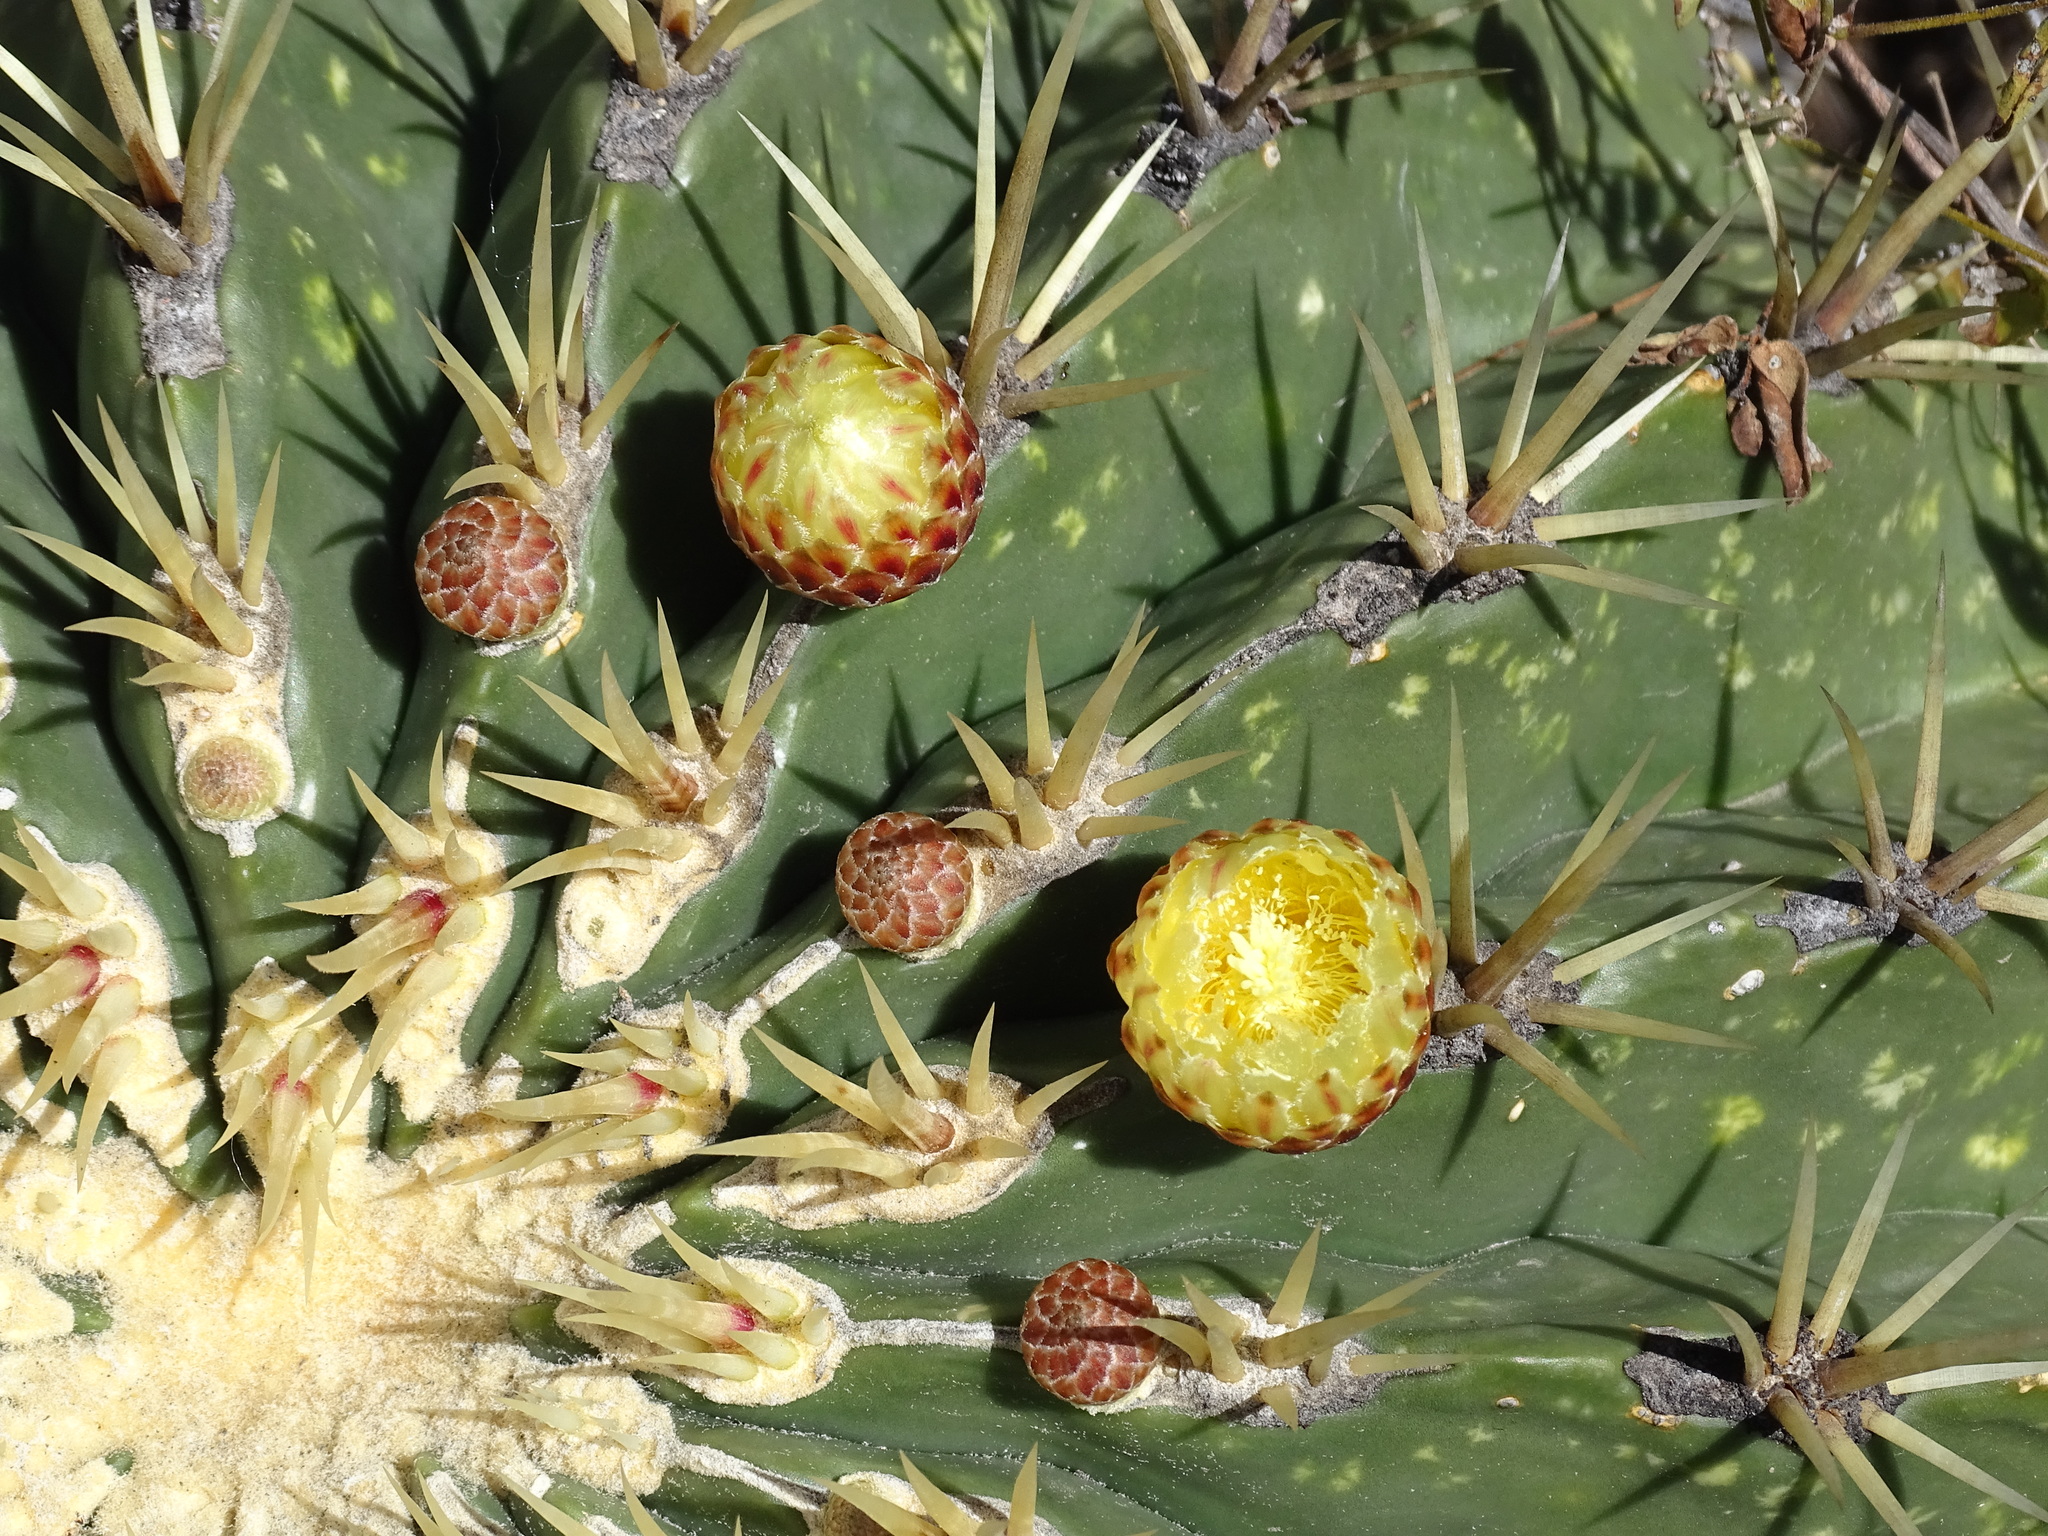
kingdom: Plantae
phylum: Tracheophyta
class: Magnoliopsida
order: Caryophyllales
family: Cactaceae
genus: Bisnaga
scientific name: Bisnaga histrix
